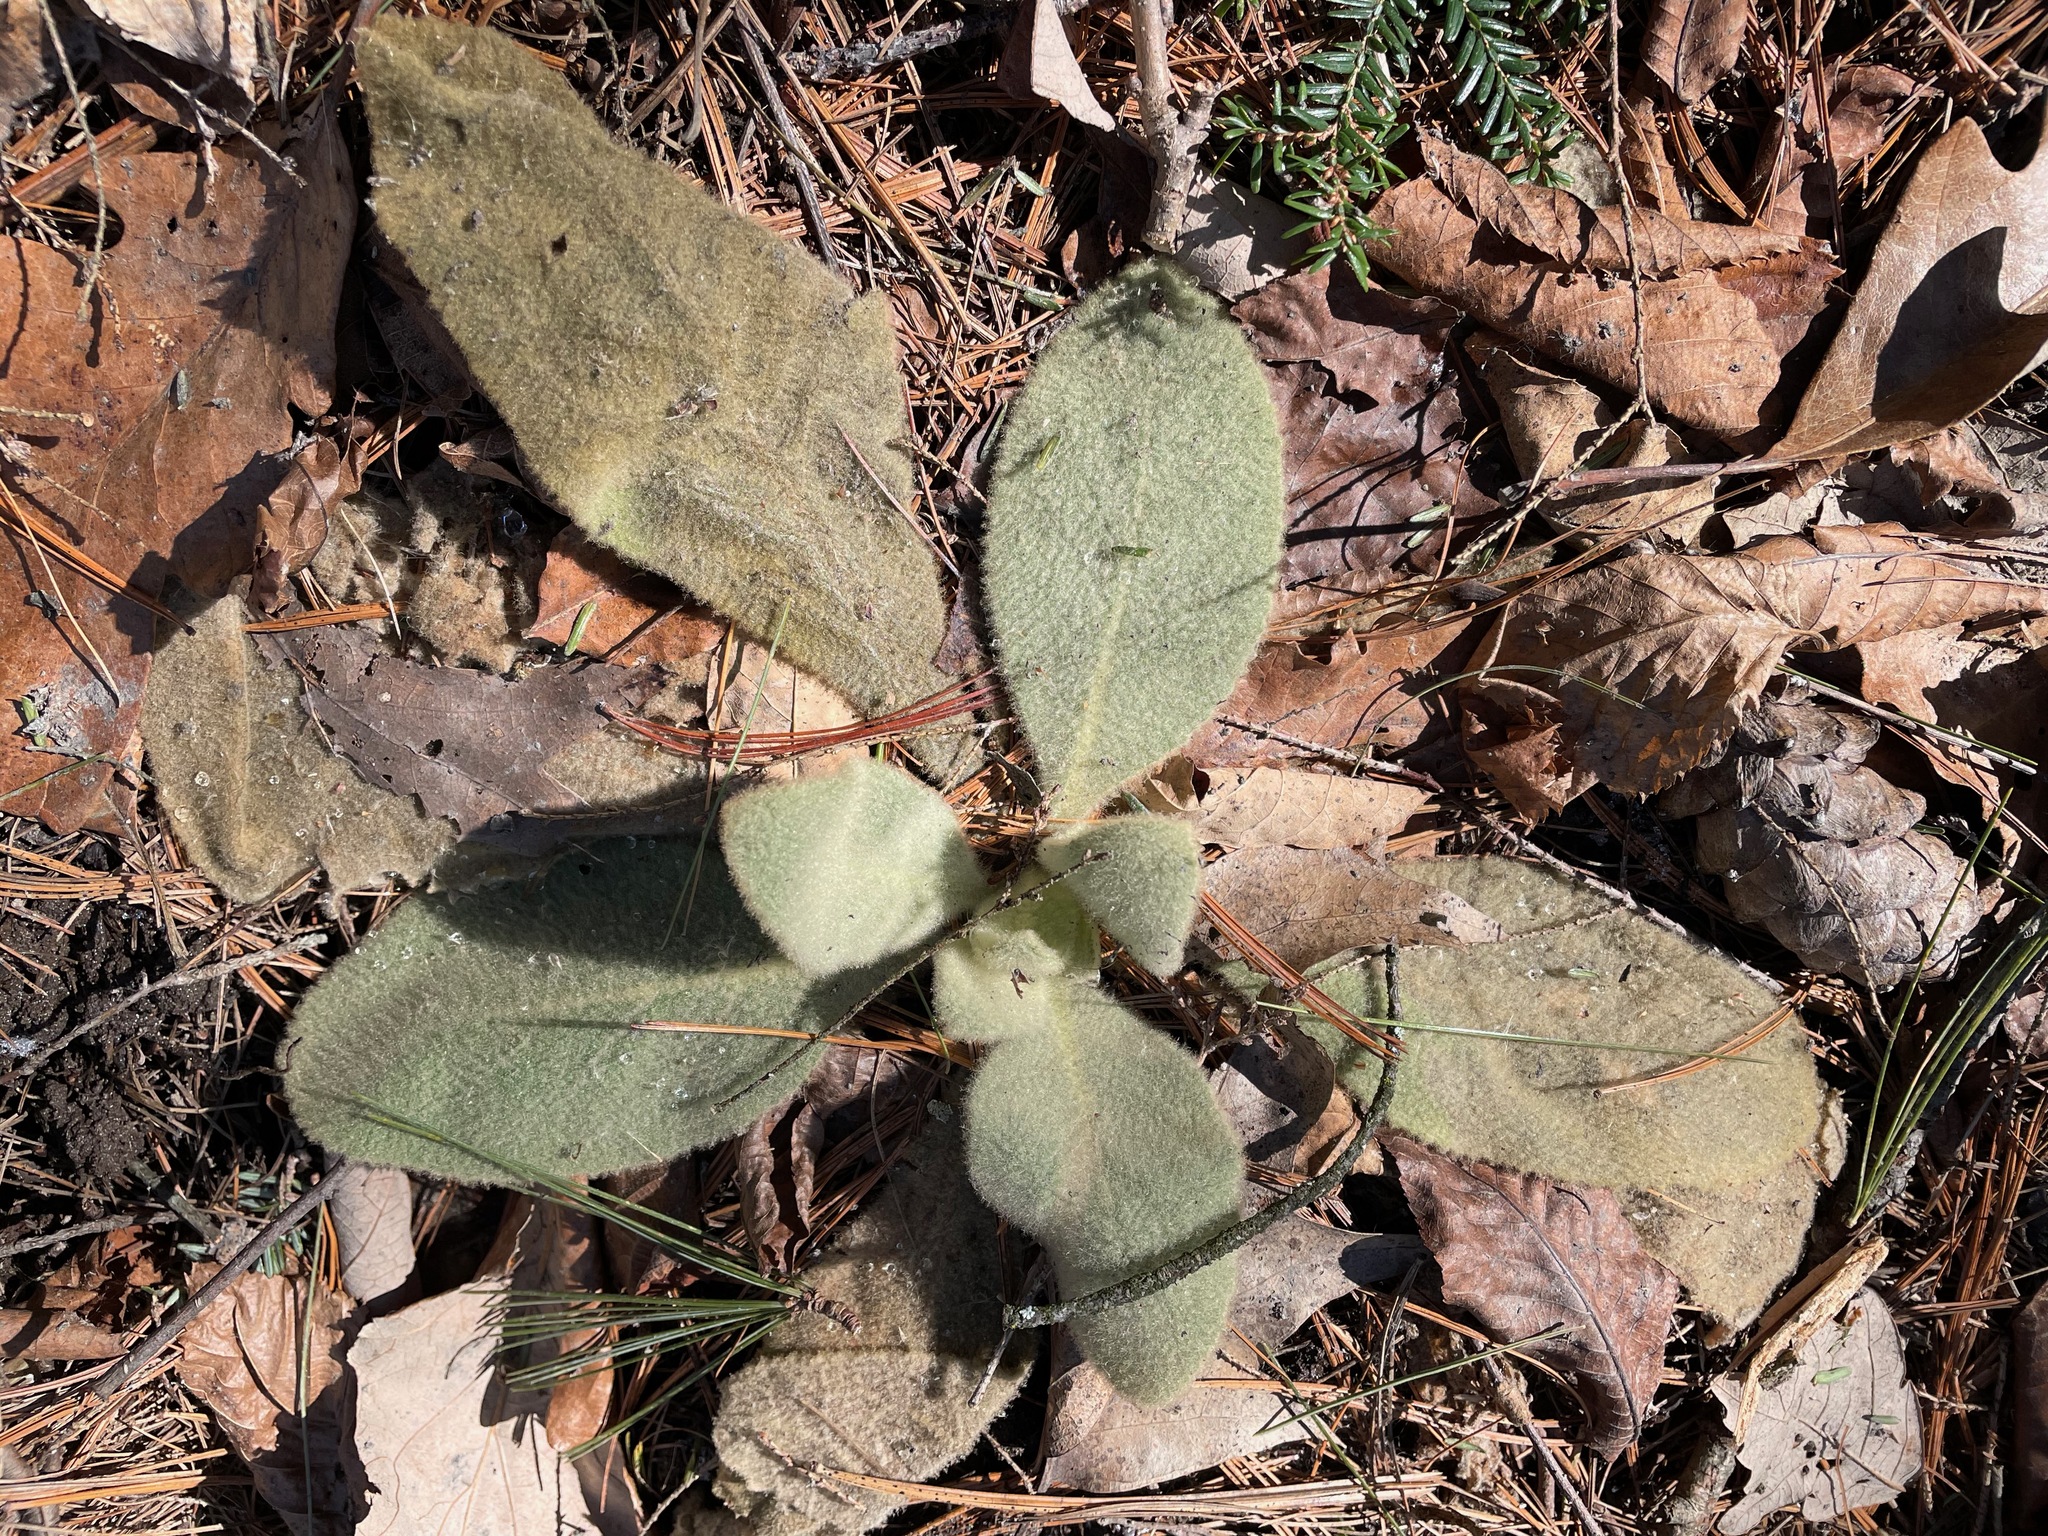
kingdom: Plantae
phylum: Tracheophyta
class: Magnoliopsida
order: Lamiales
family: Scrophulariaceae
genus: Verbascum
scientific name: Verbascum thapsus
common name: Common mullein
